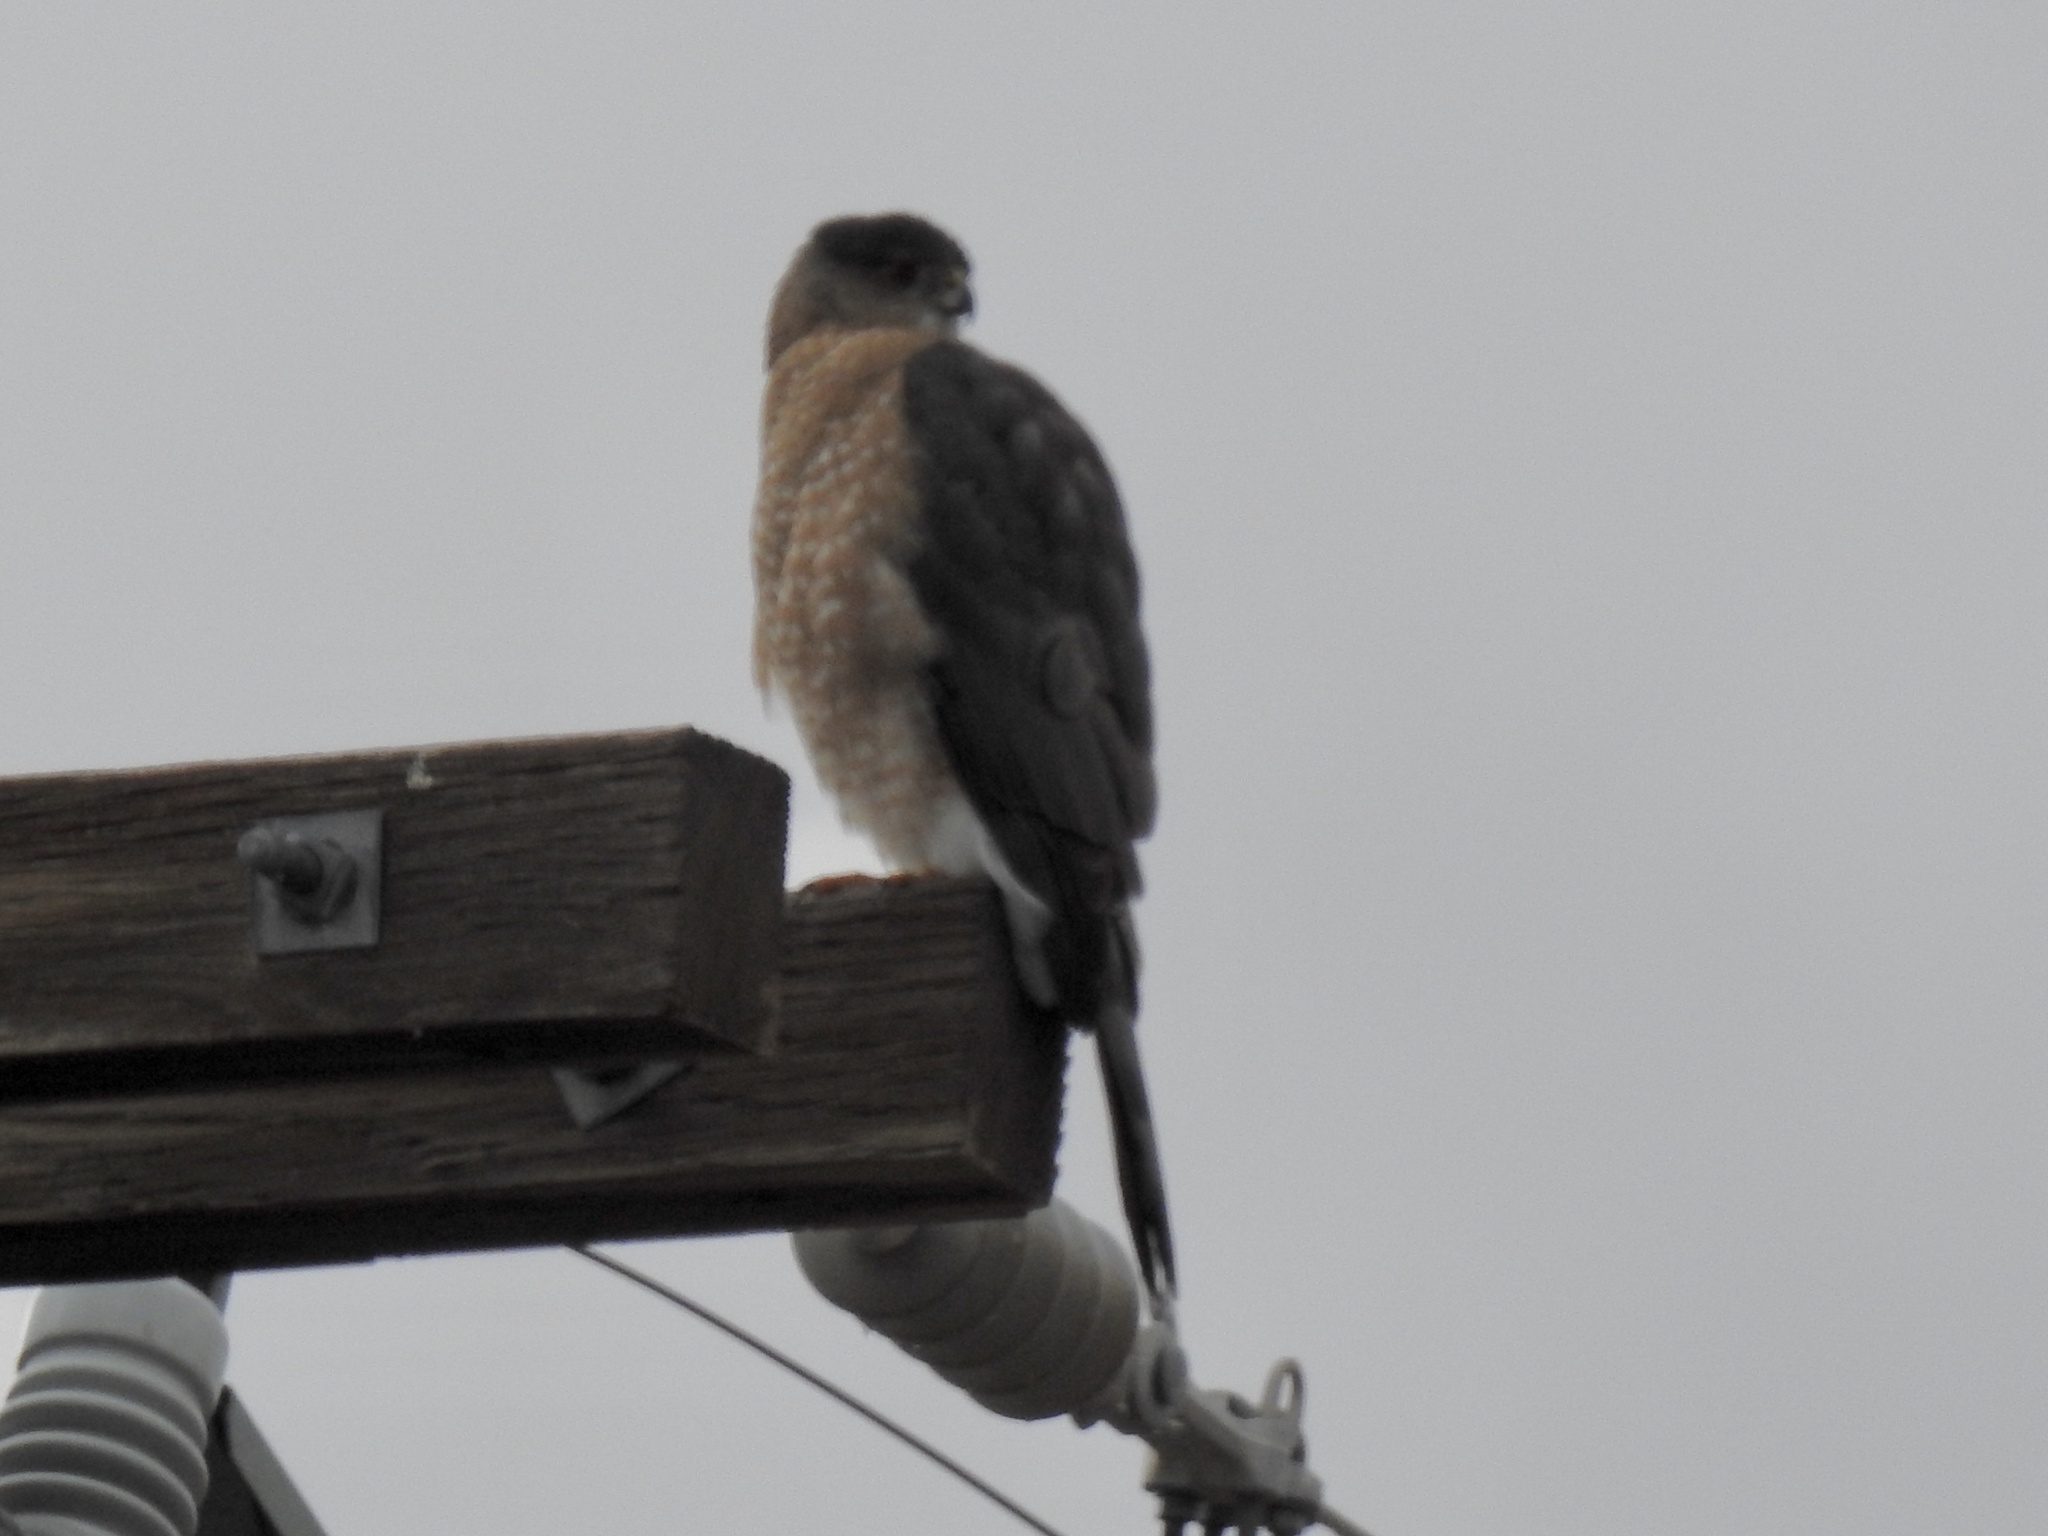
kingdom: Animalia
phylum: Chordata
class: Aves
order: Accipitriformes
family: Accipitridae
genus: Accipiter
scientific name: Accipiter cooperii
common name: Cooper's hawk
